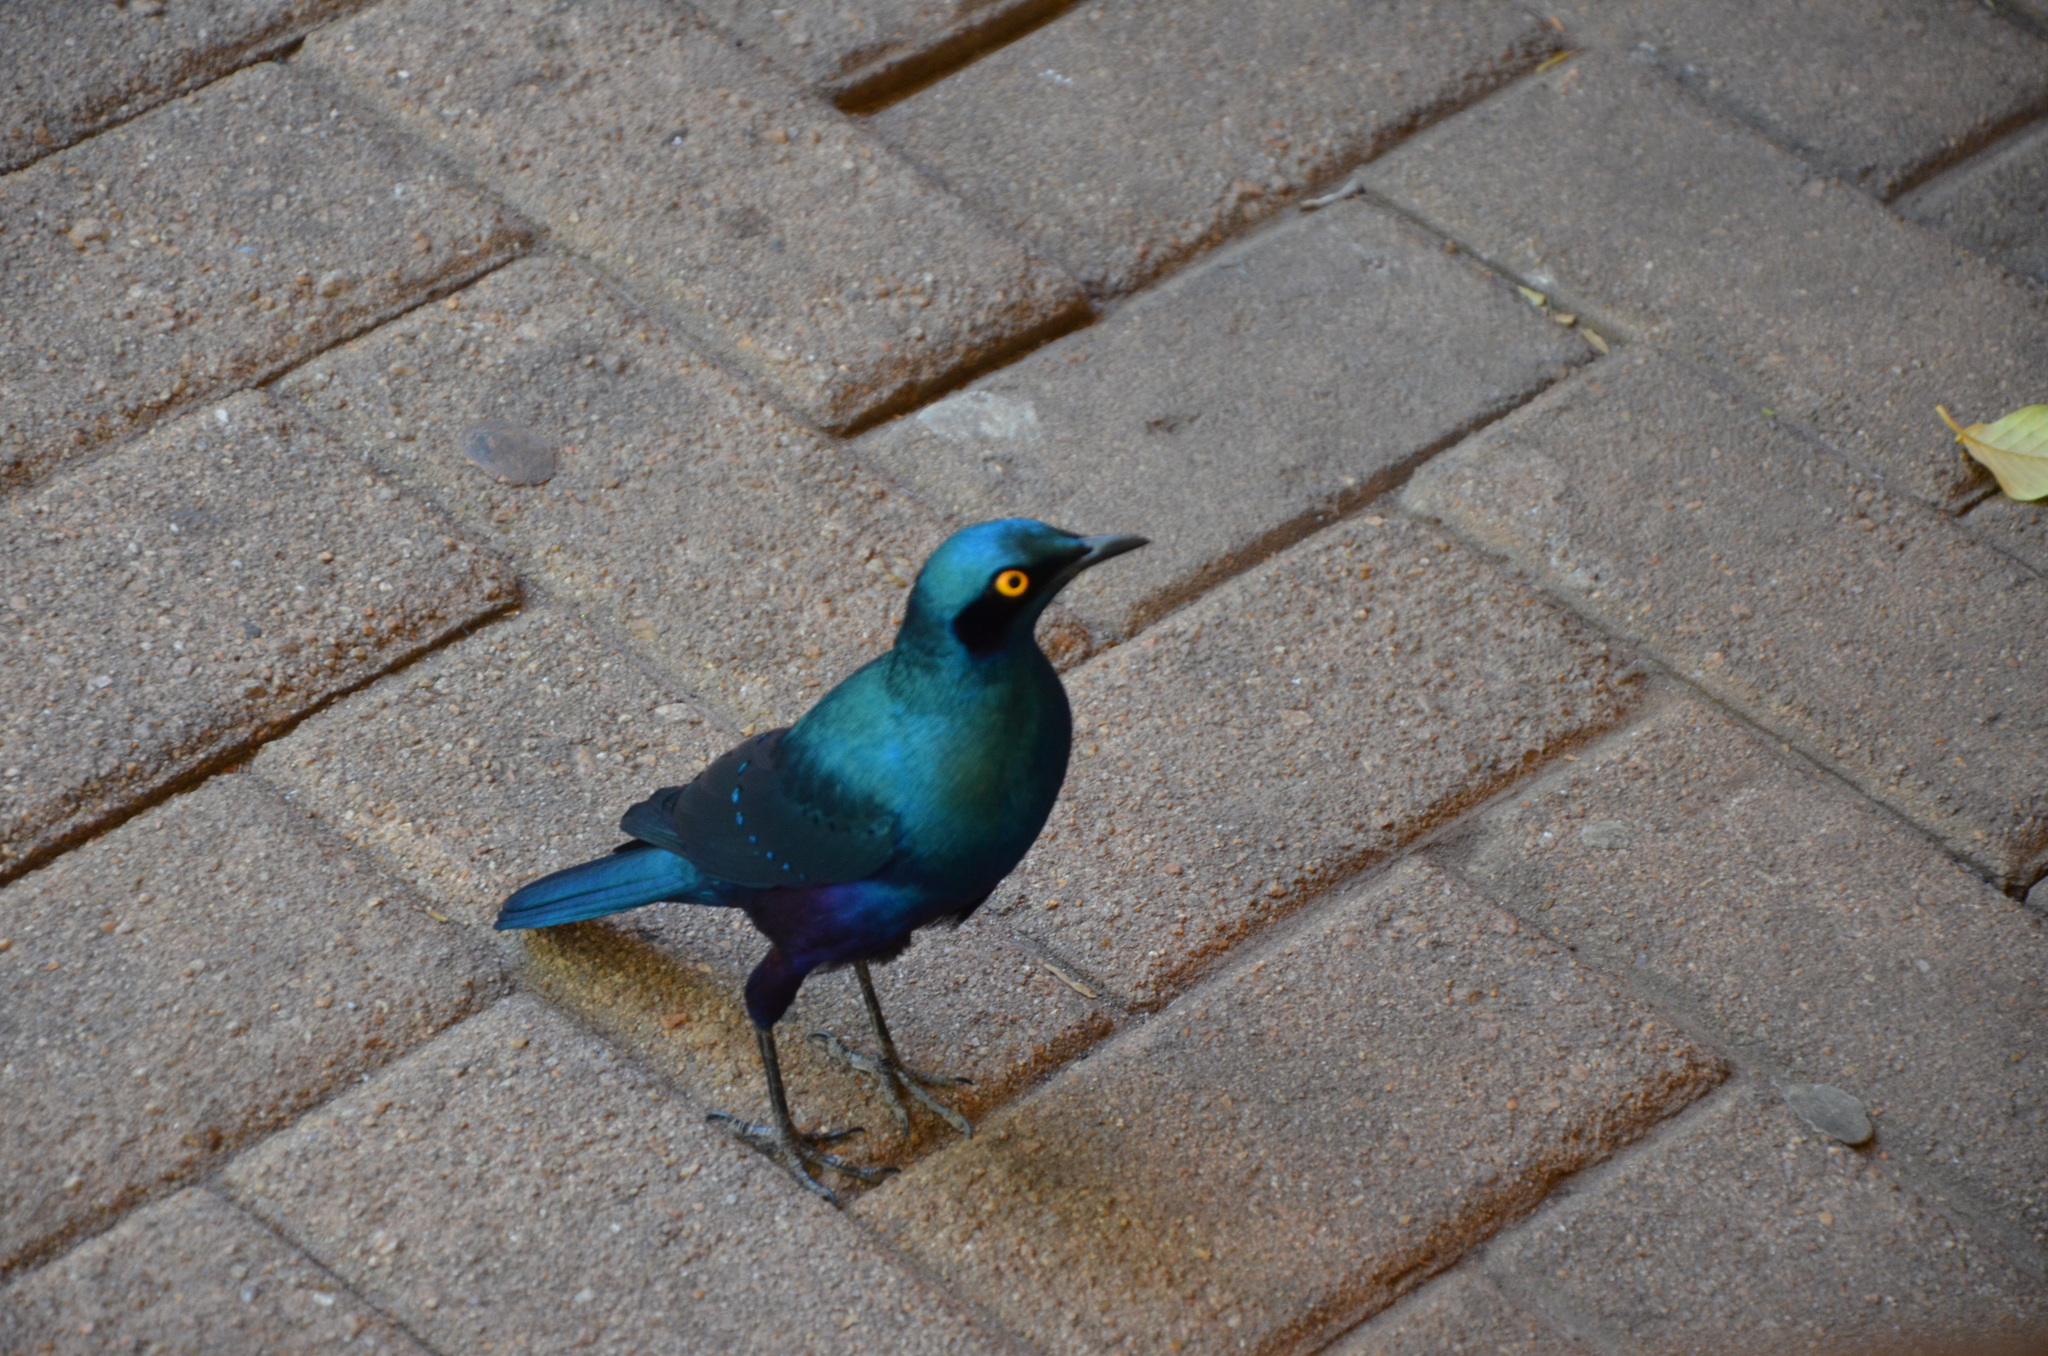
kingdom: Animalia
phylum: Chordata
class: Aves
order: Passeriformes
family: Sturnidae
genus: Lamprotornis
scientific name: Lamprotornis chalybaeus
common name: Greater blue-eared starling
